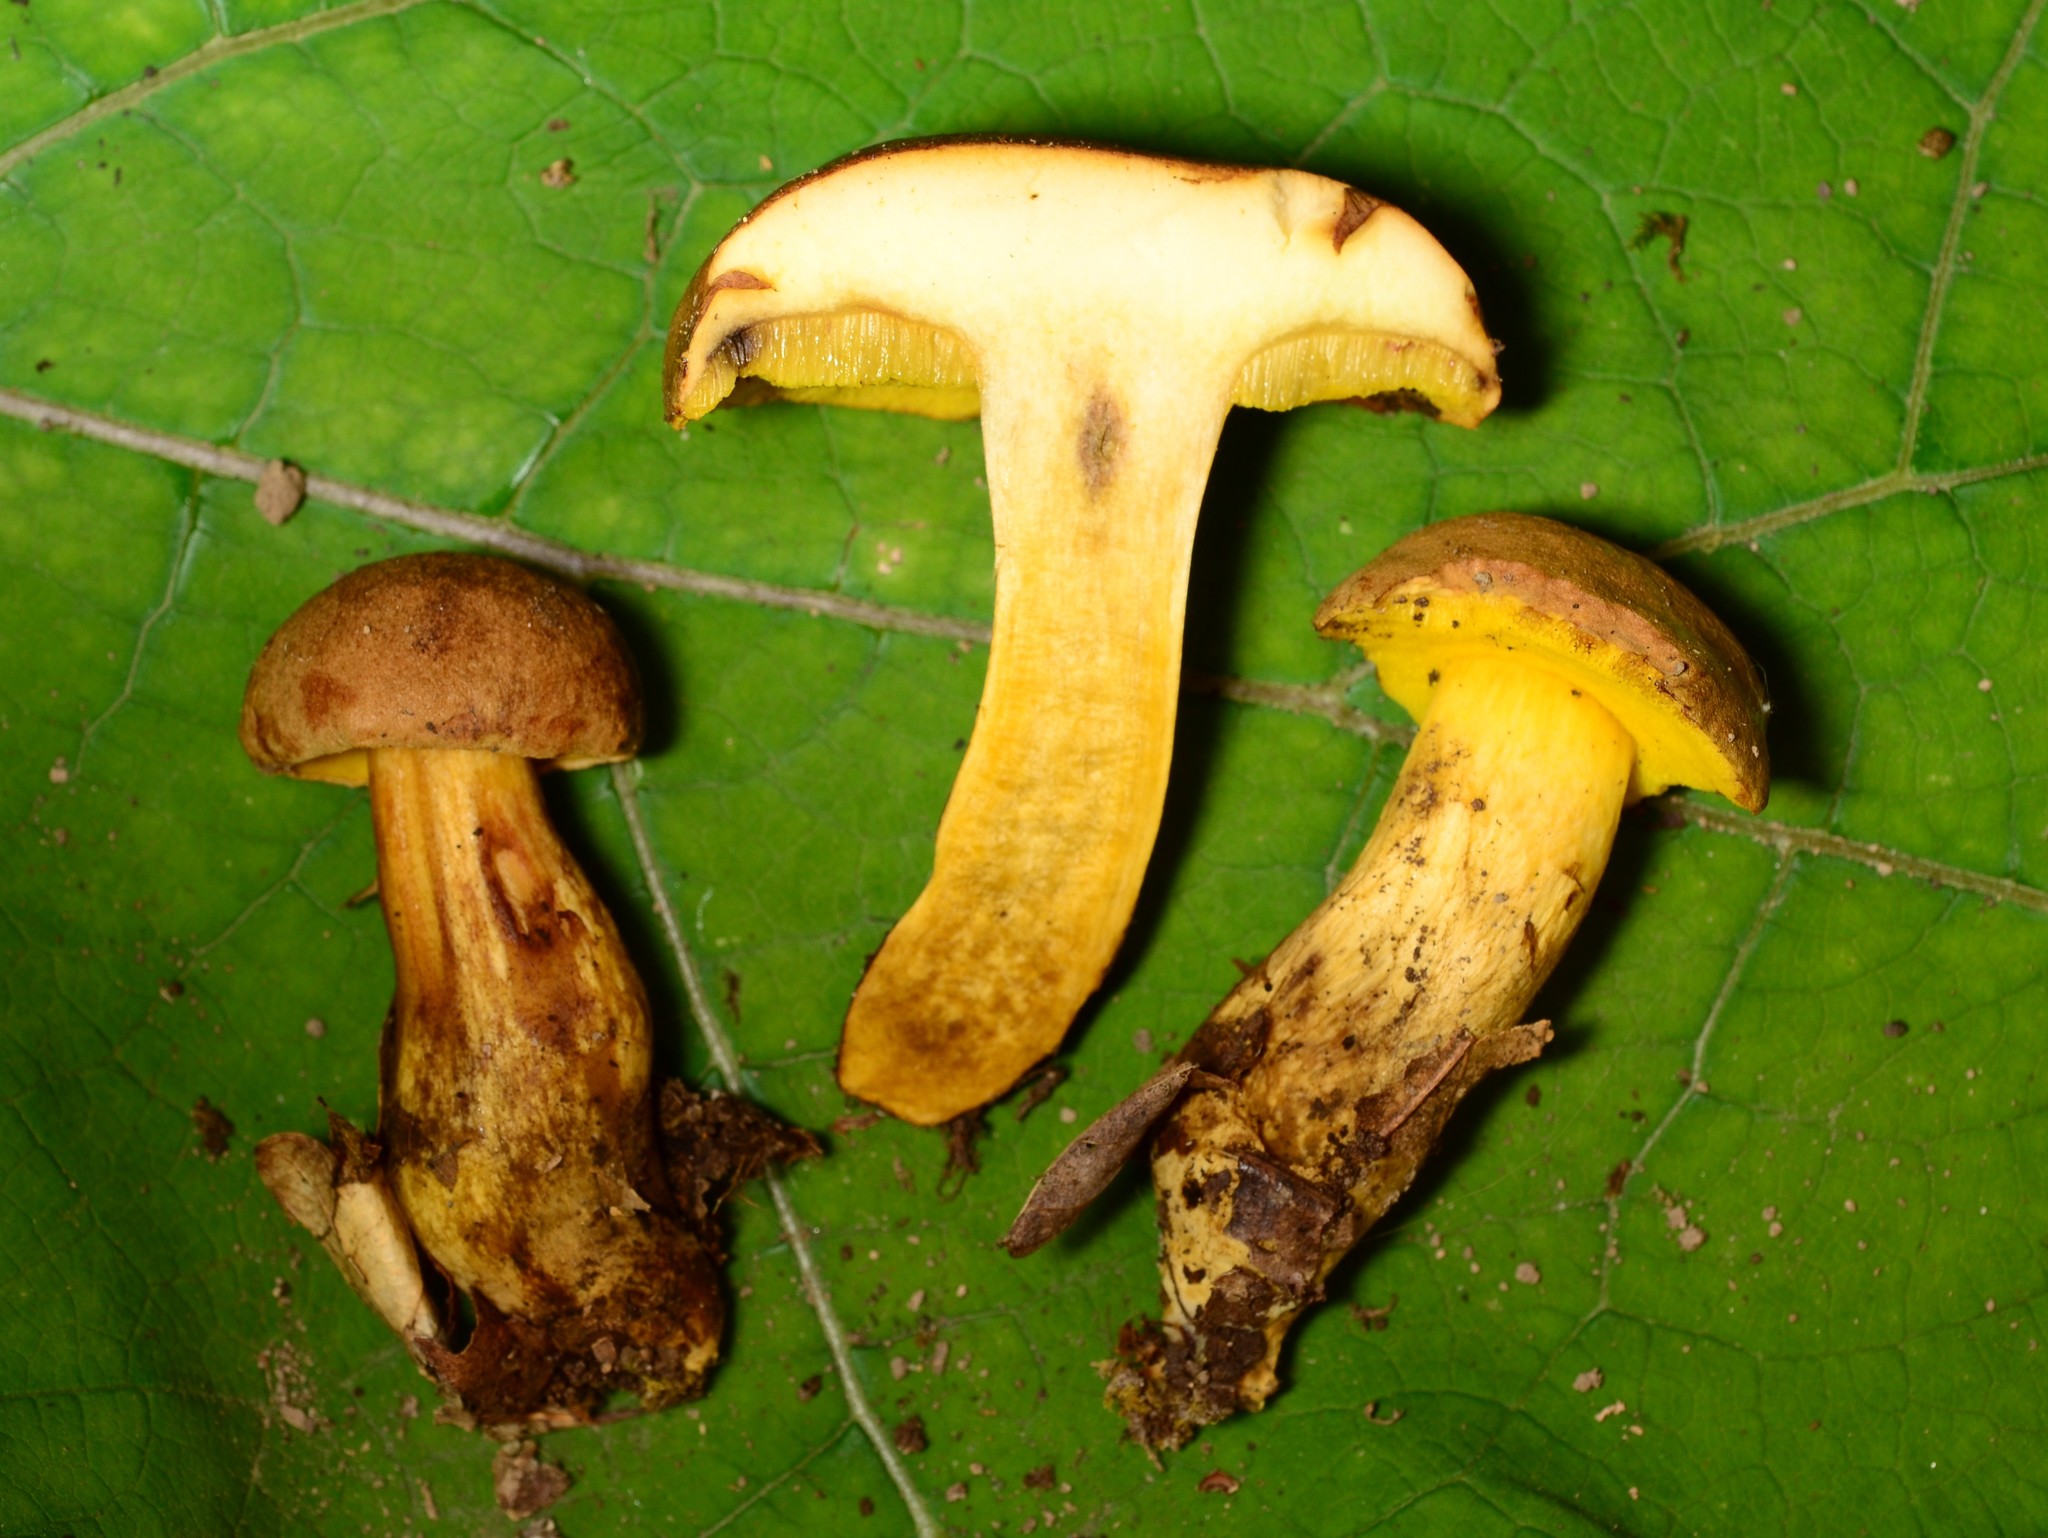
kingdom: Fungi
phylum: Basidiomycota
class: Agaricomycetes
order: Boletales
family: Boletaceae
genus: Aureoboletus
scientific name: Aureoboletus innixus
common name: Clustered brown bolete
